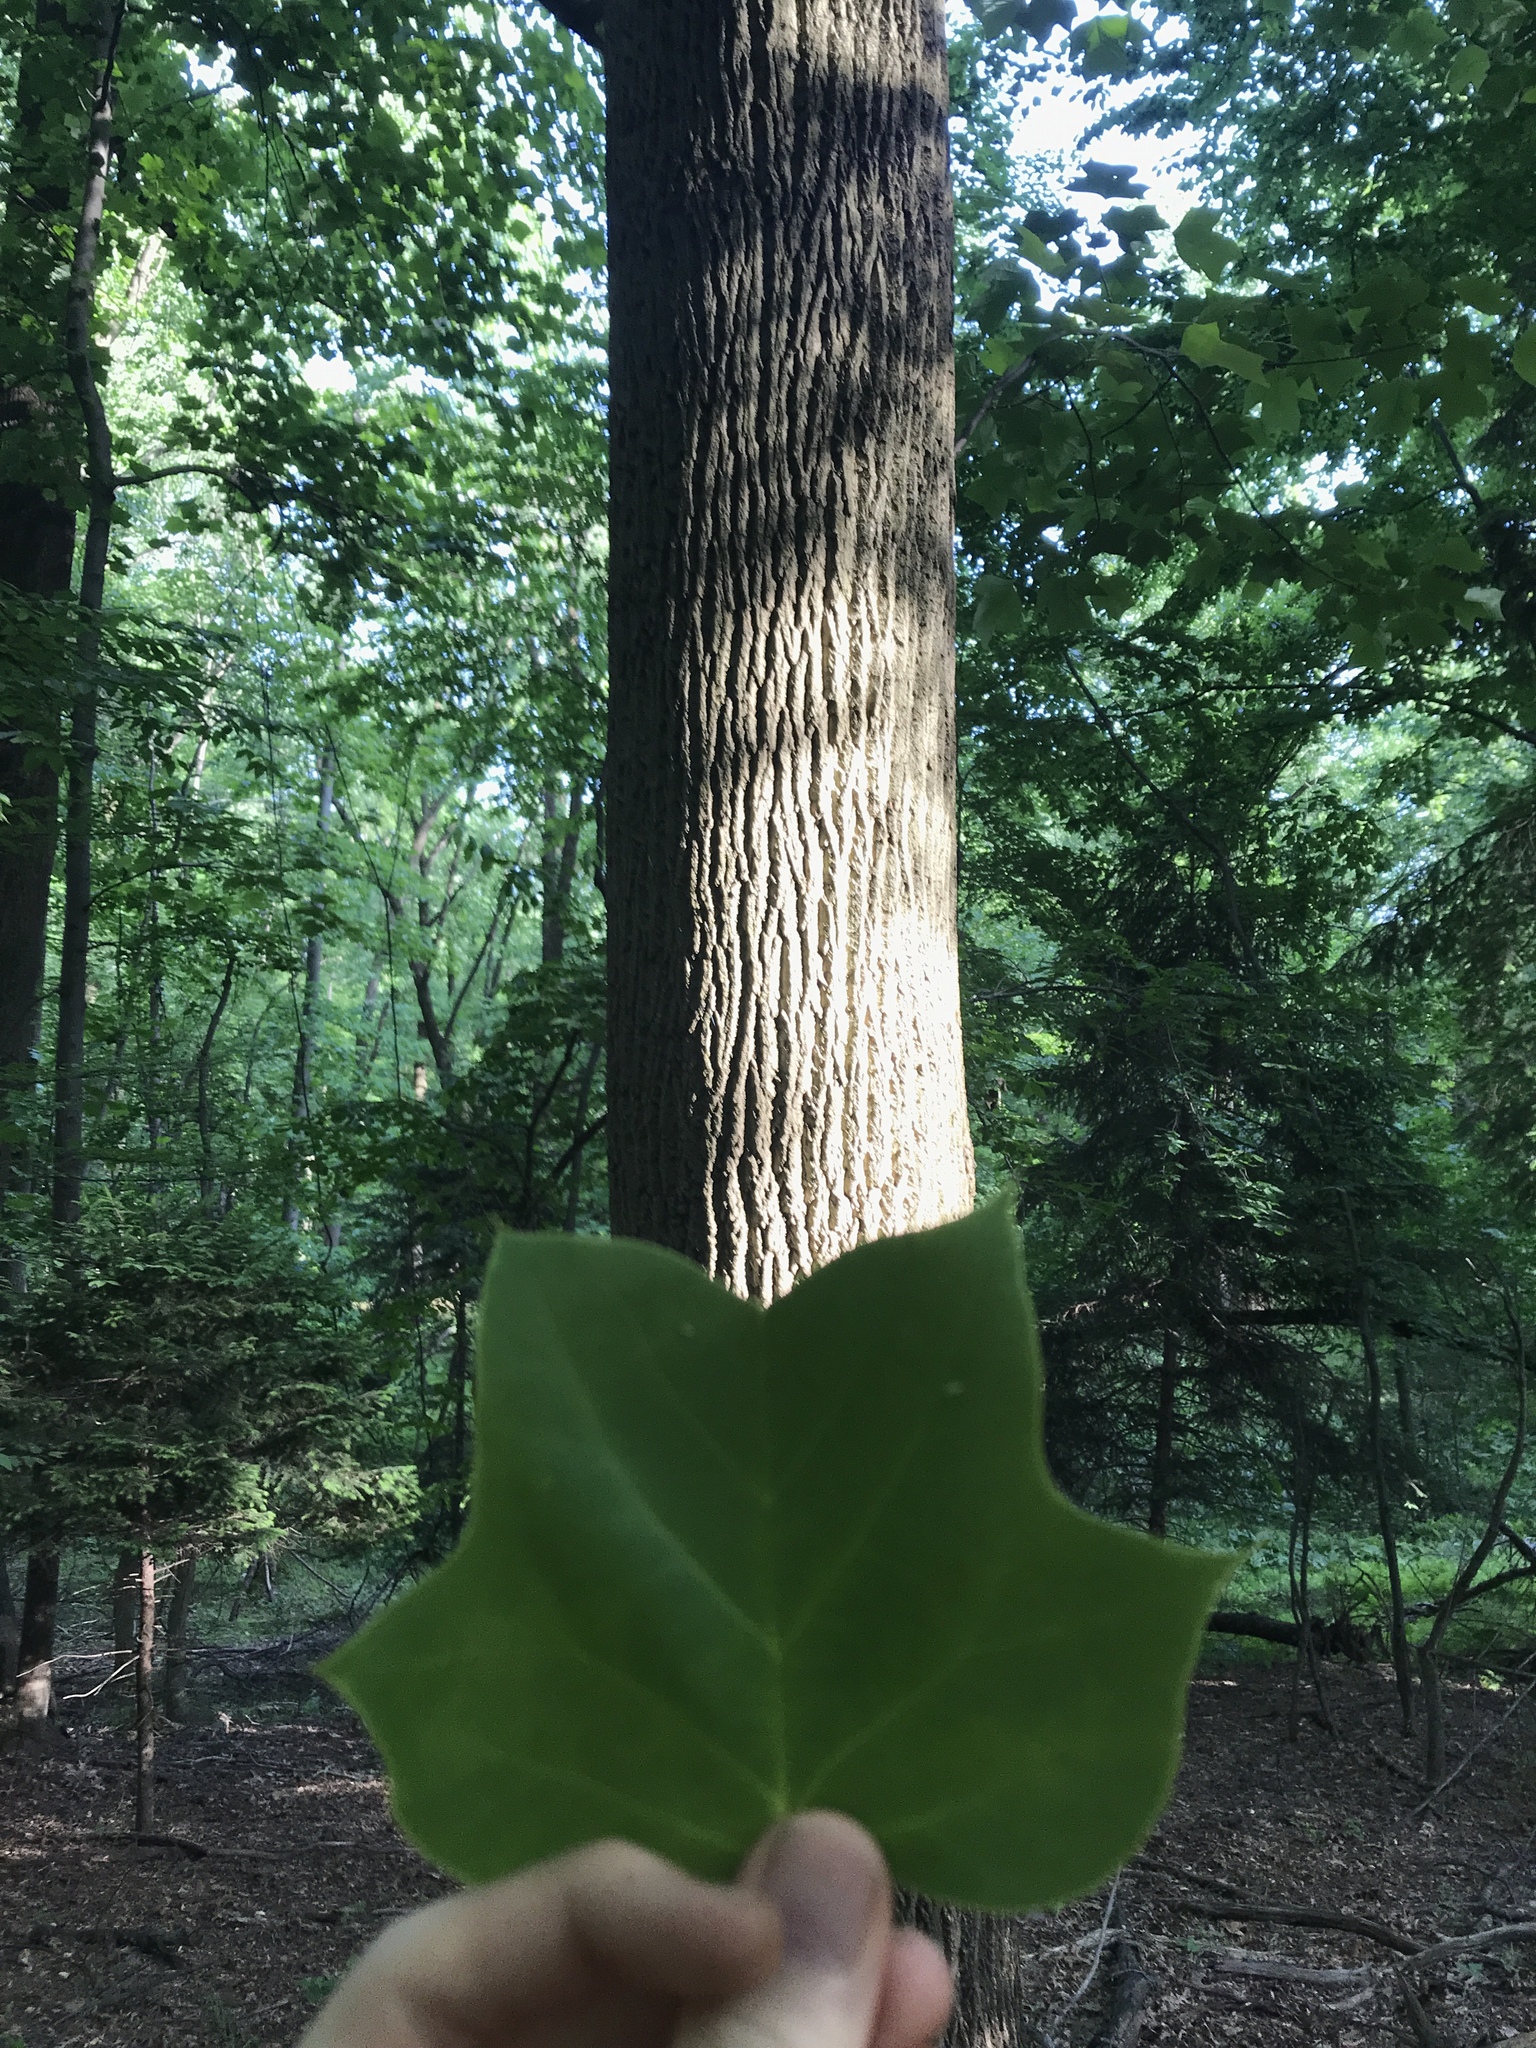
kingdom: Plantae
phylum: Tracheophyta
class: Magnoliopsida
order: Magnoliales
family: Magnoliaceae
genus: Liriodendron
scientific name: Liriodendron tulipifera
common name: Tulip tree
